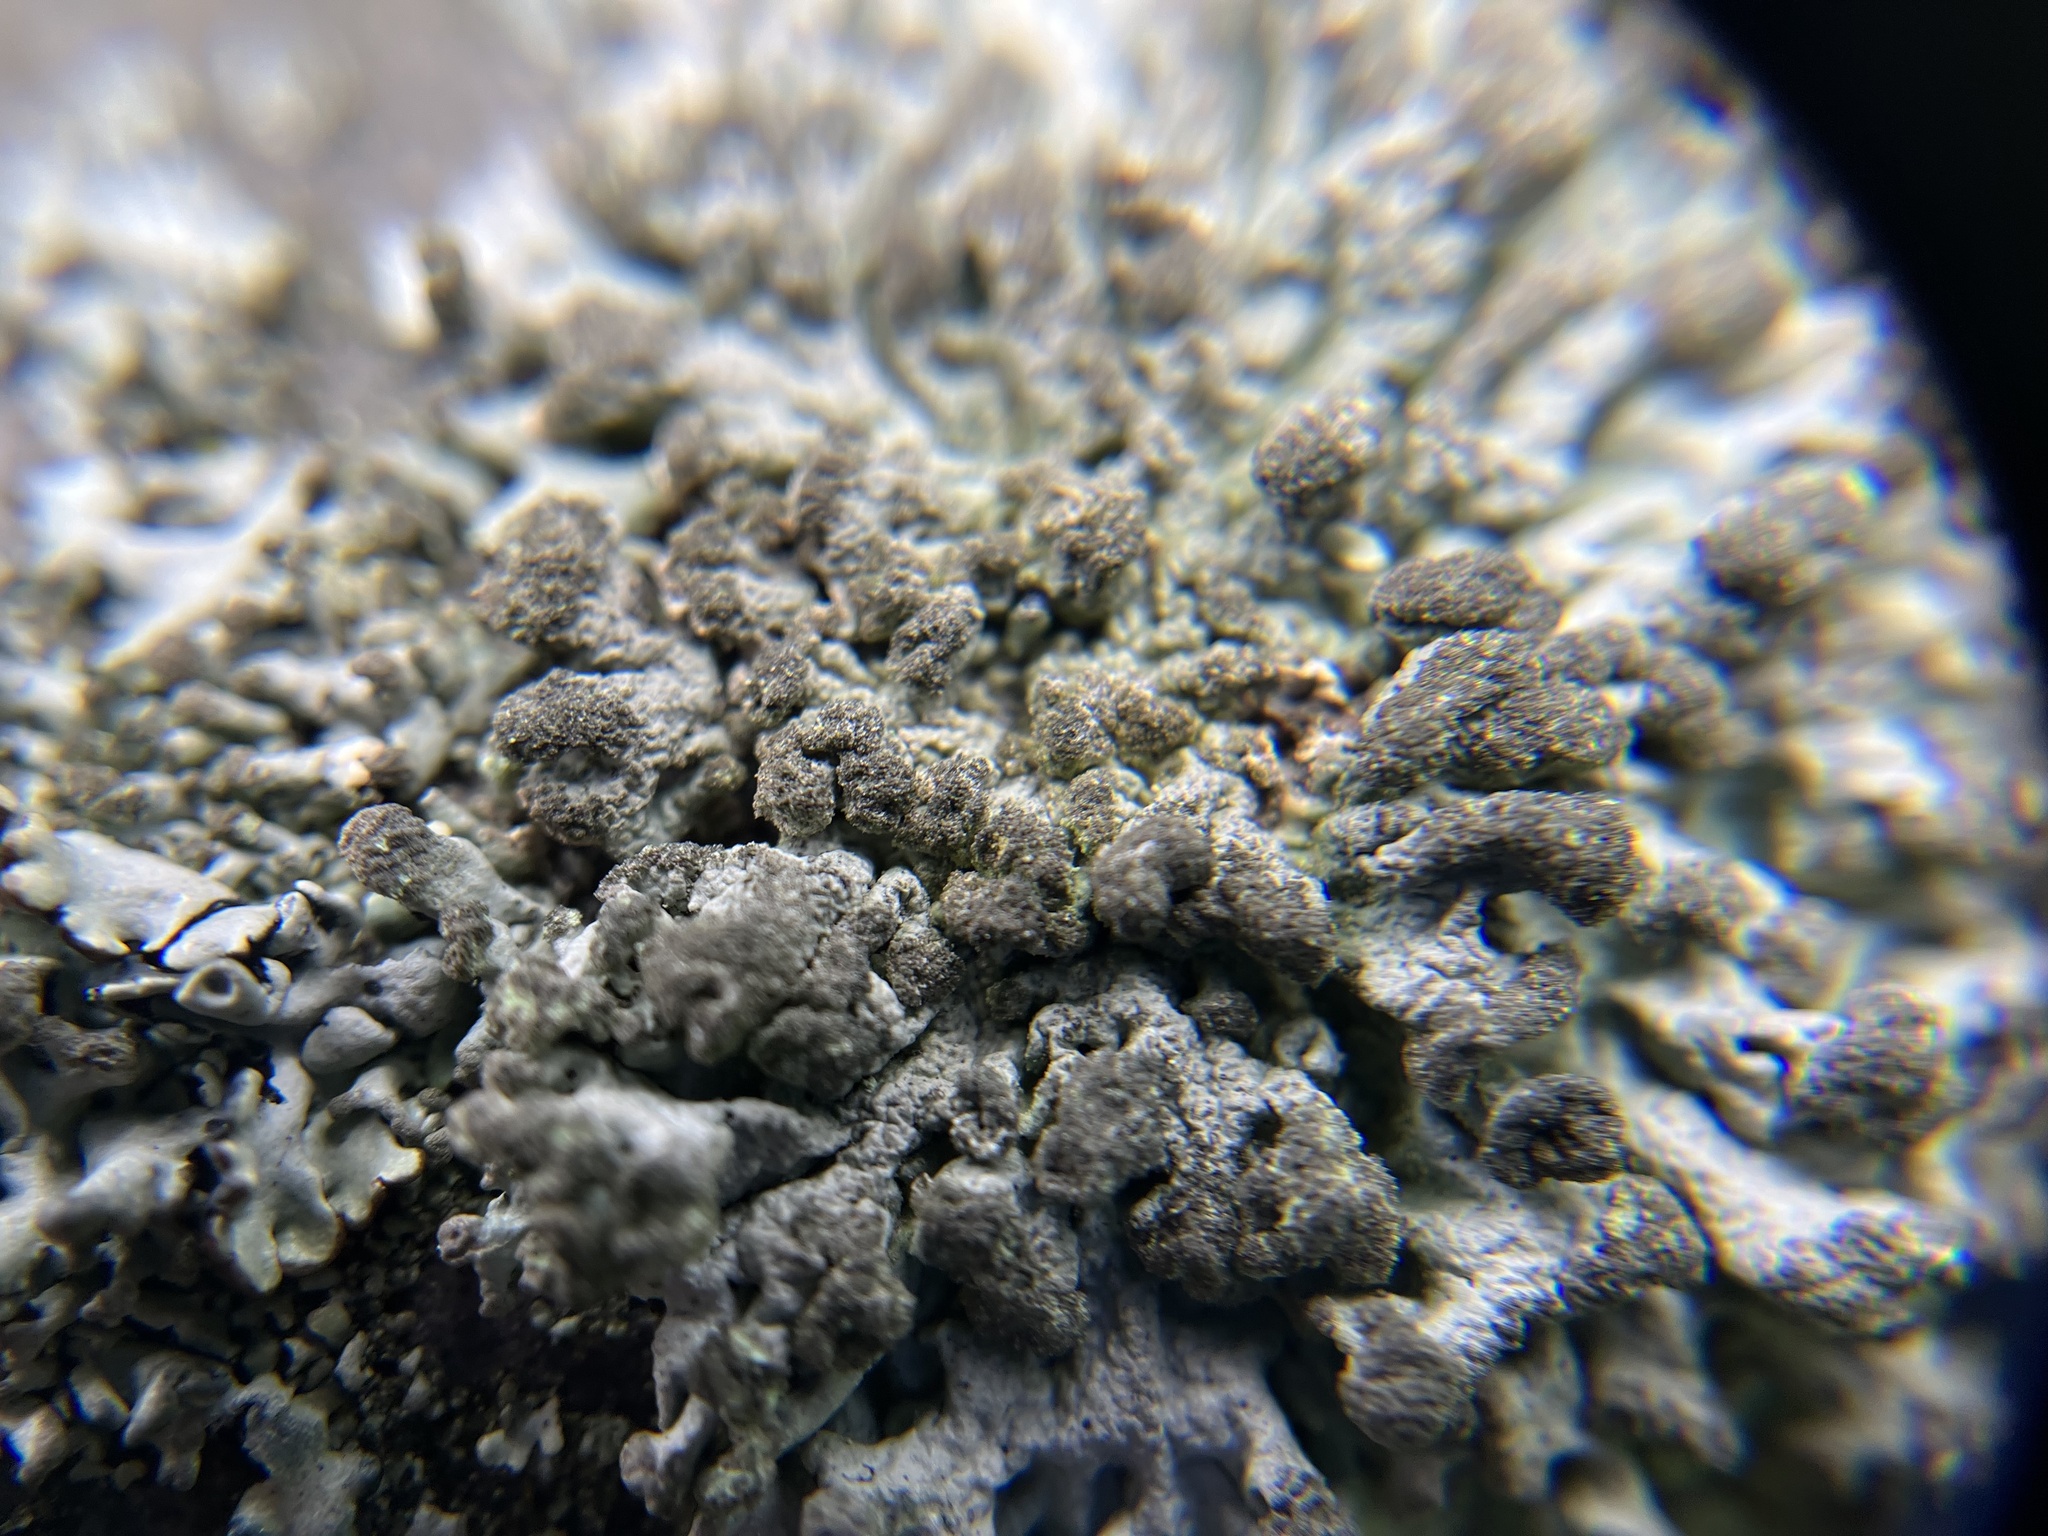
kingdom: Fungi
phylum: Ascomycota
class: Lecanoromycetes
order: Lecanorales
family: Parmeliaceae
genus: Hypogymnia
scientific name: Hypogymnia tubulosa
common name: Powder-headed tube lichen
